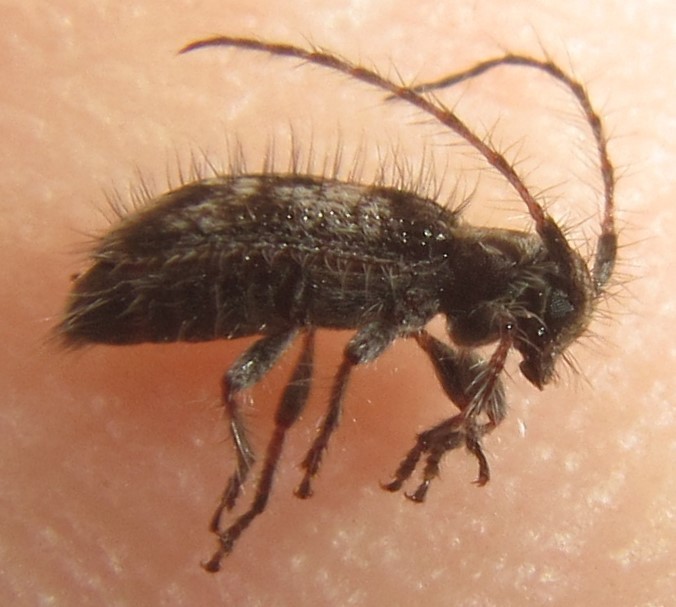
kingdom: Animalia
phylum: Arthropoda
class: Insecta
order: Coleoptera
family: Cerambycidae
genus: Exocentrus
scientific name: Exocentrus longipilis
